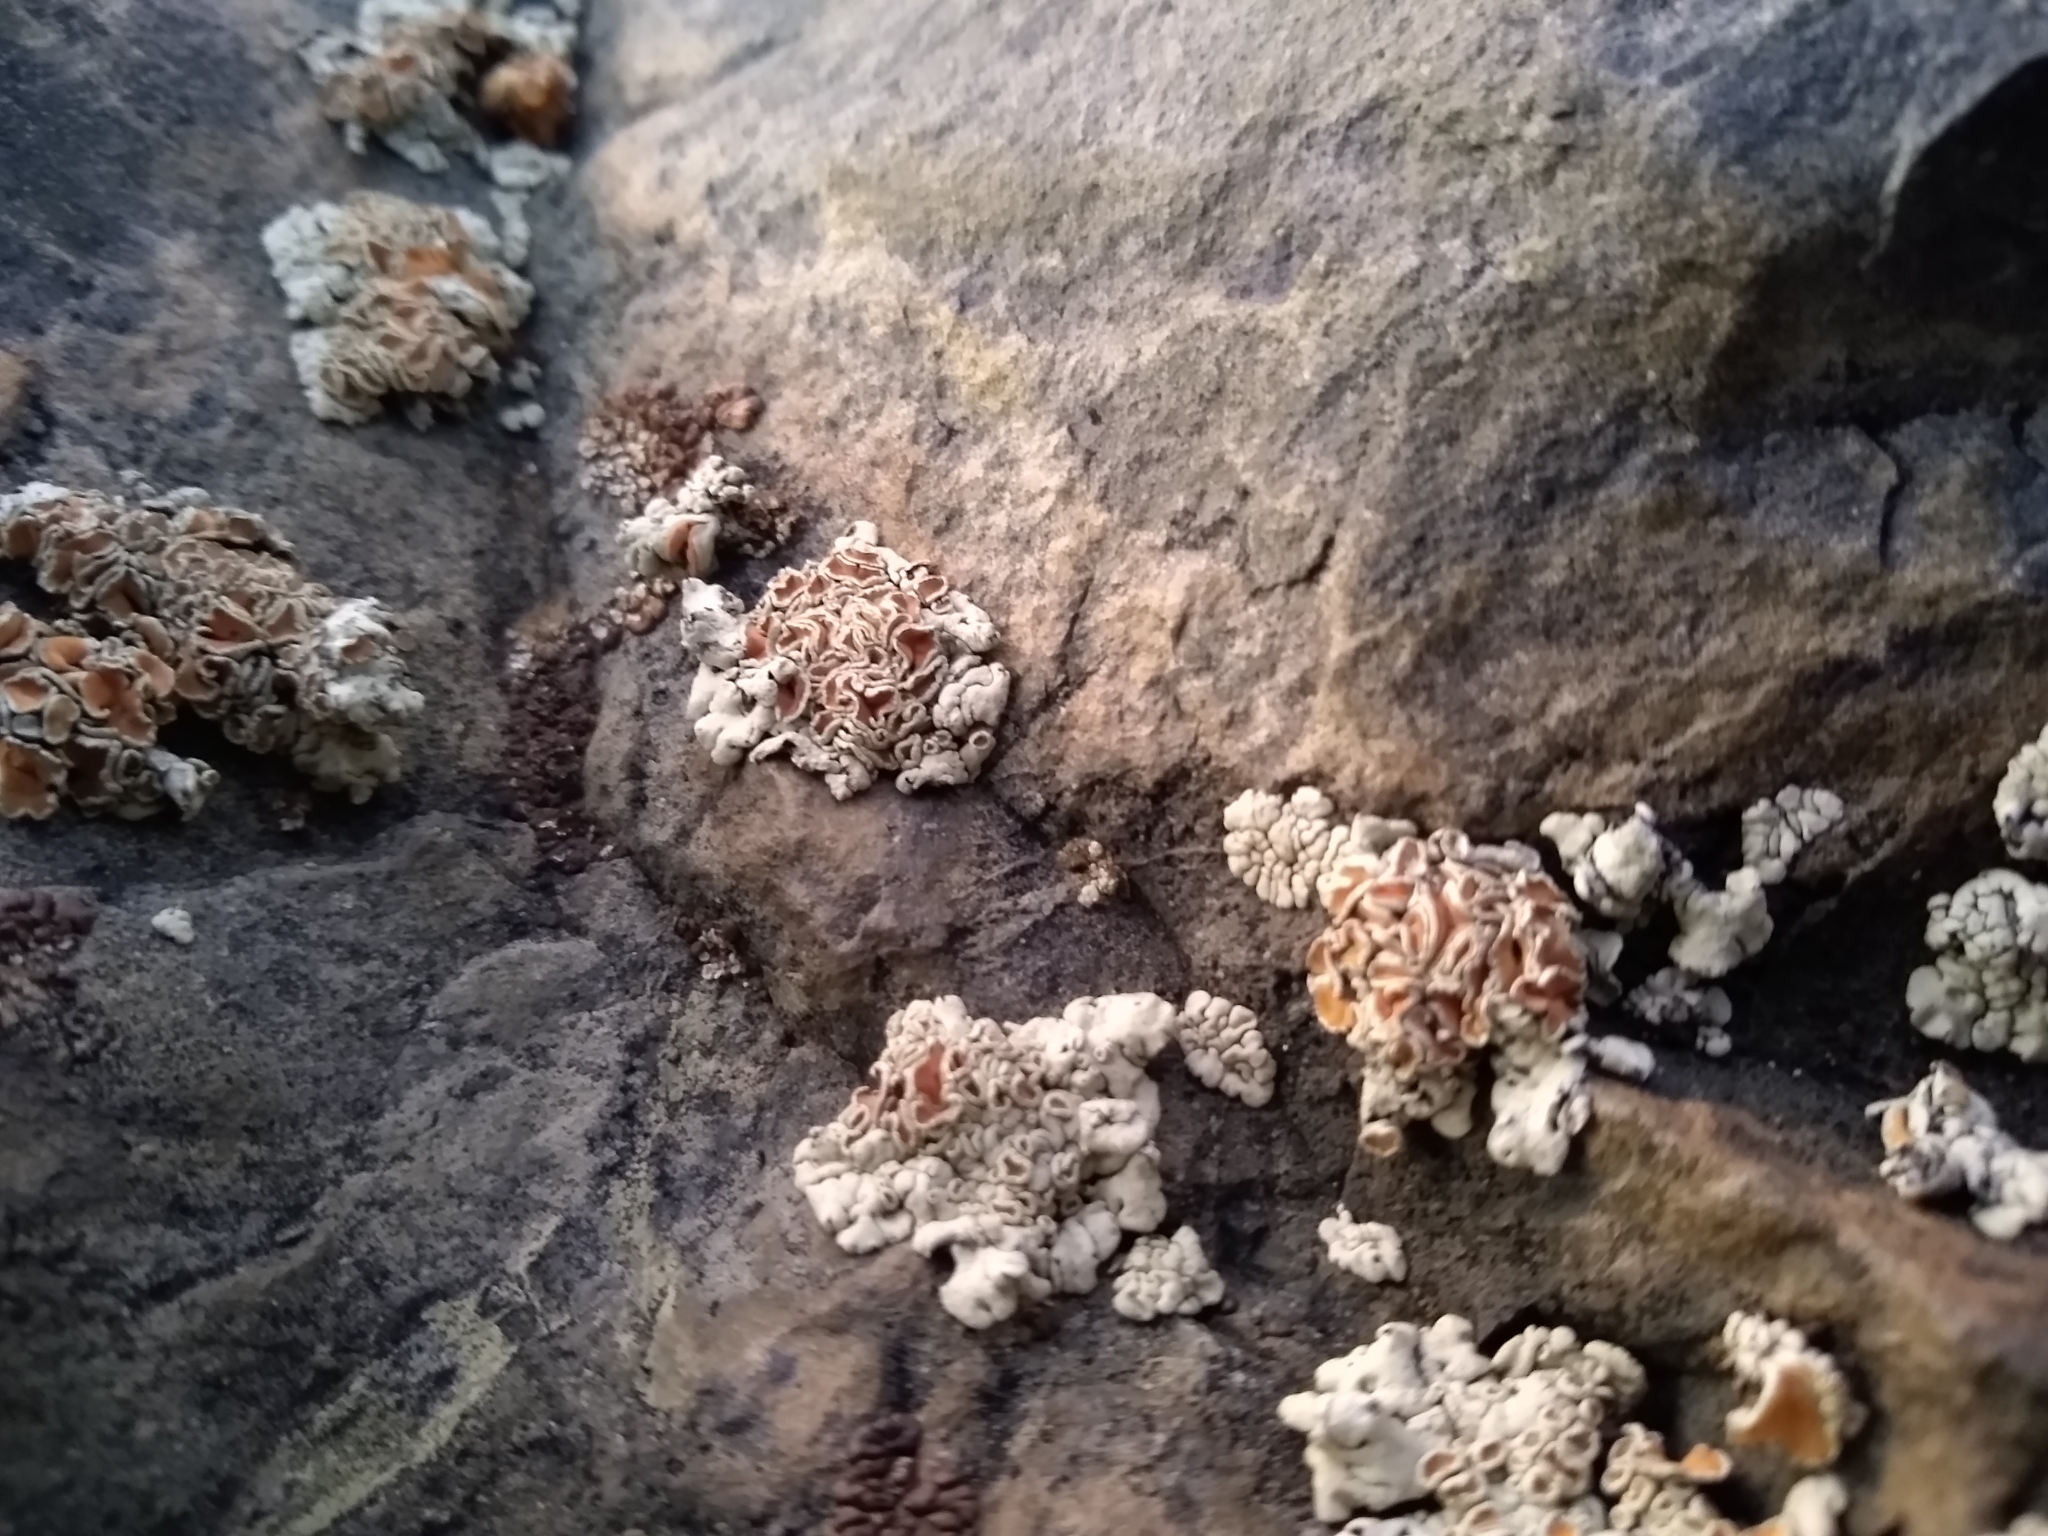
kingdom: Fungi
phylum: Ascomycota
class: Lecanoromycetes
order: Lecanorales
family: Lecanoraceae
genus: Omphalodina
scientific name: Omphalodina chrysoleuca
